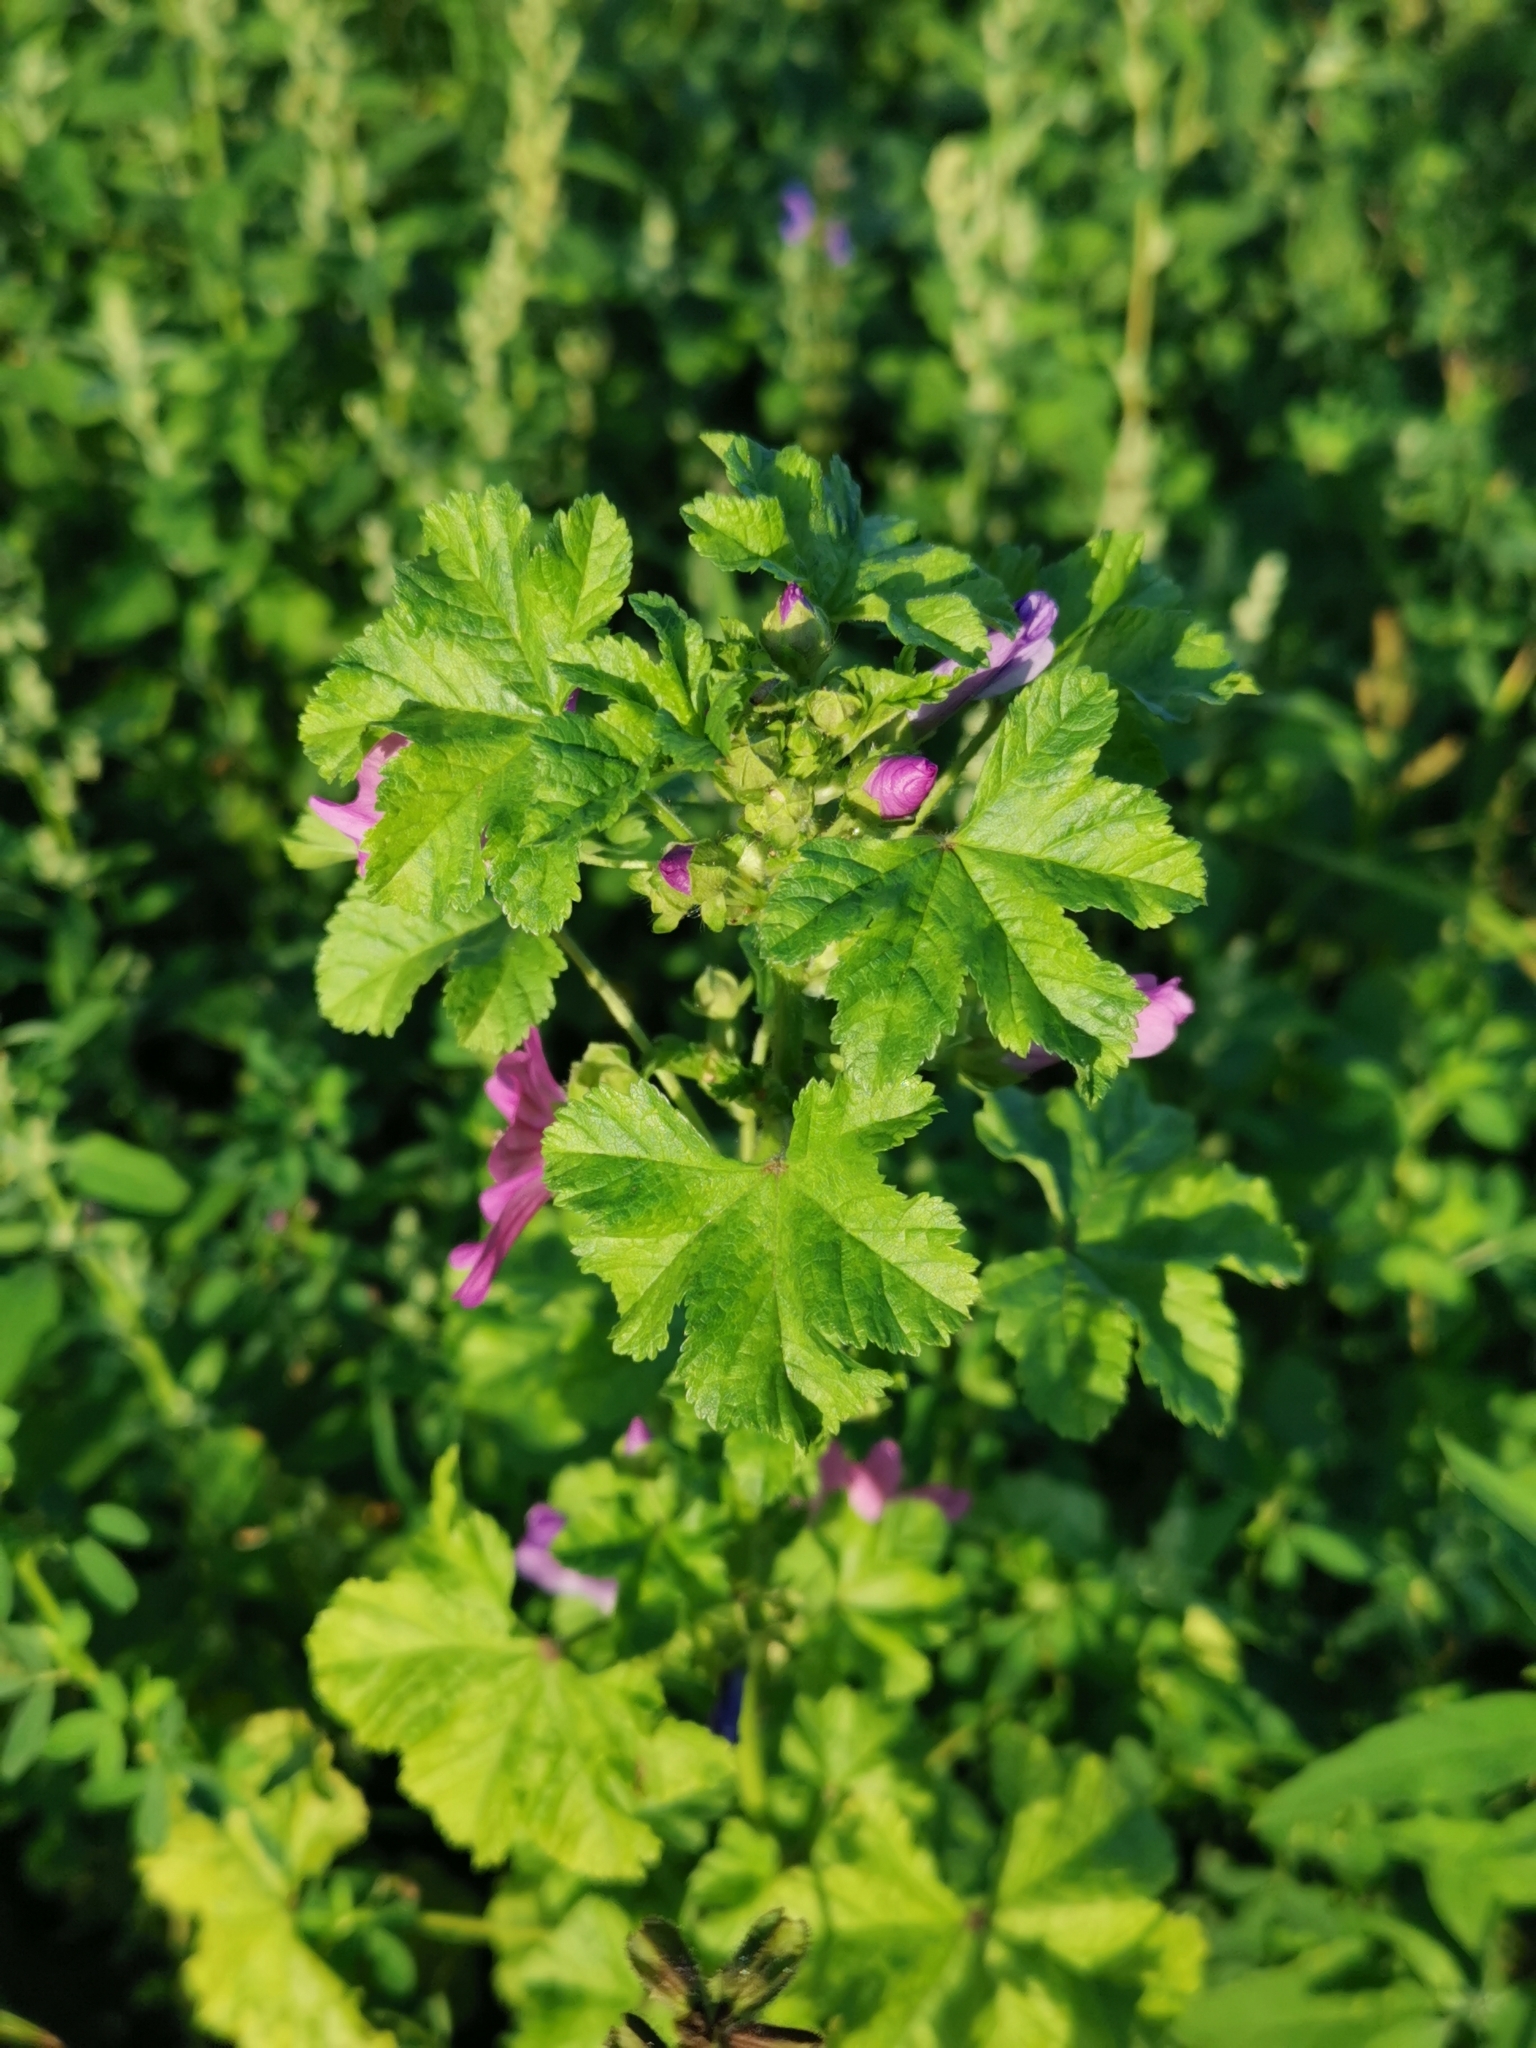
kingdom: Plantae
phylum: Tracheophyta
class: Magnoliopsida
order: Malvales
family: Malvaceae
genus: Malva
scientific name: Malva sylvestris
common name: Common mallow
